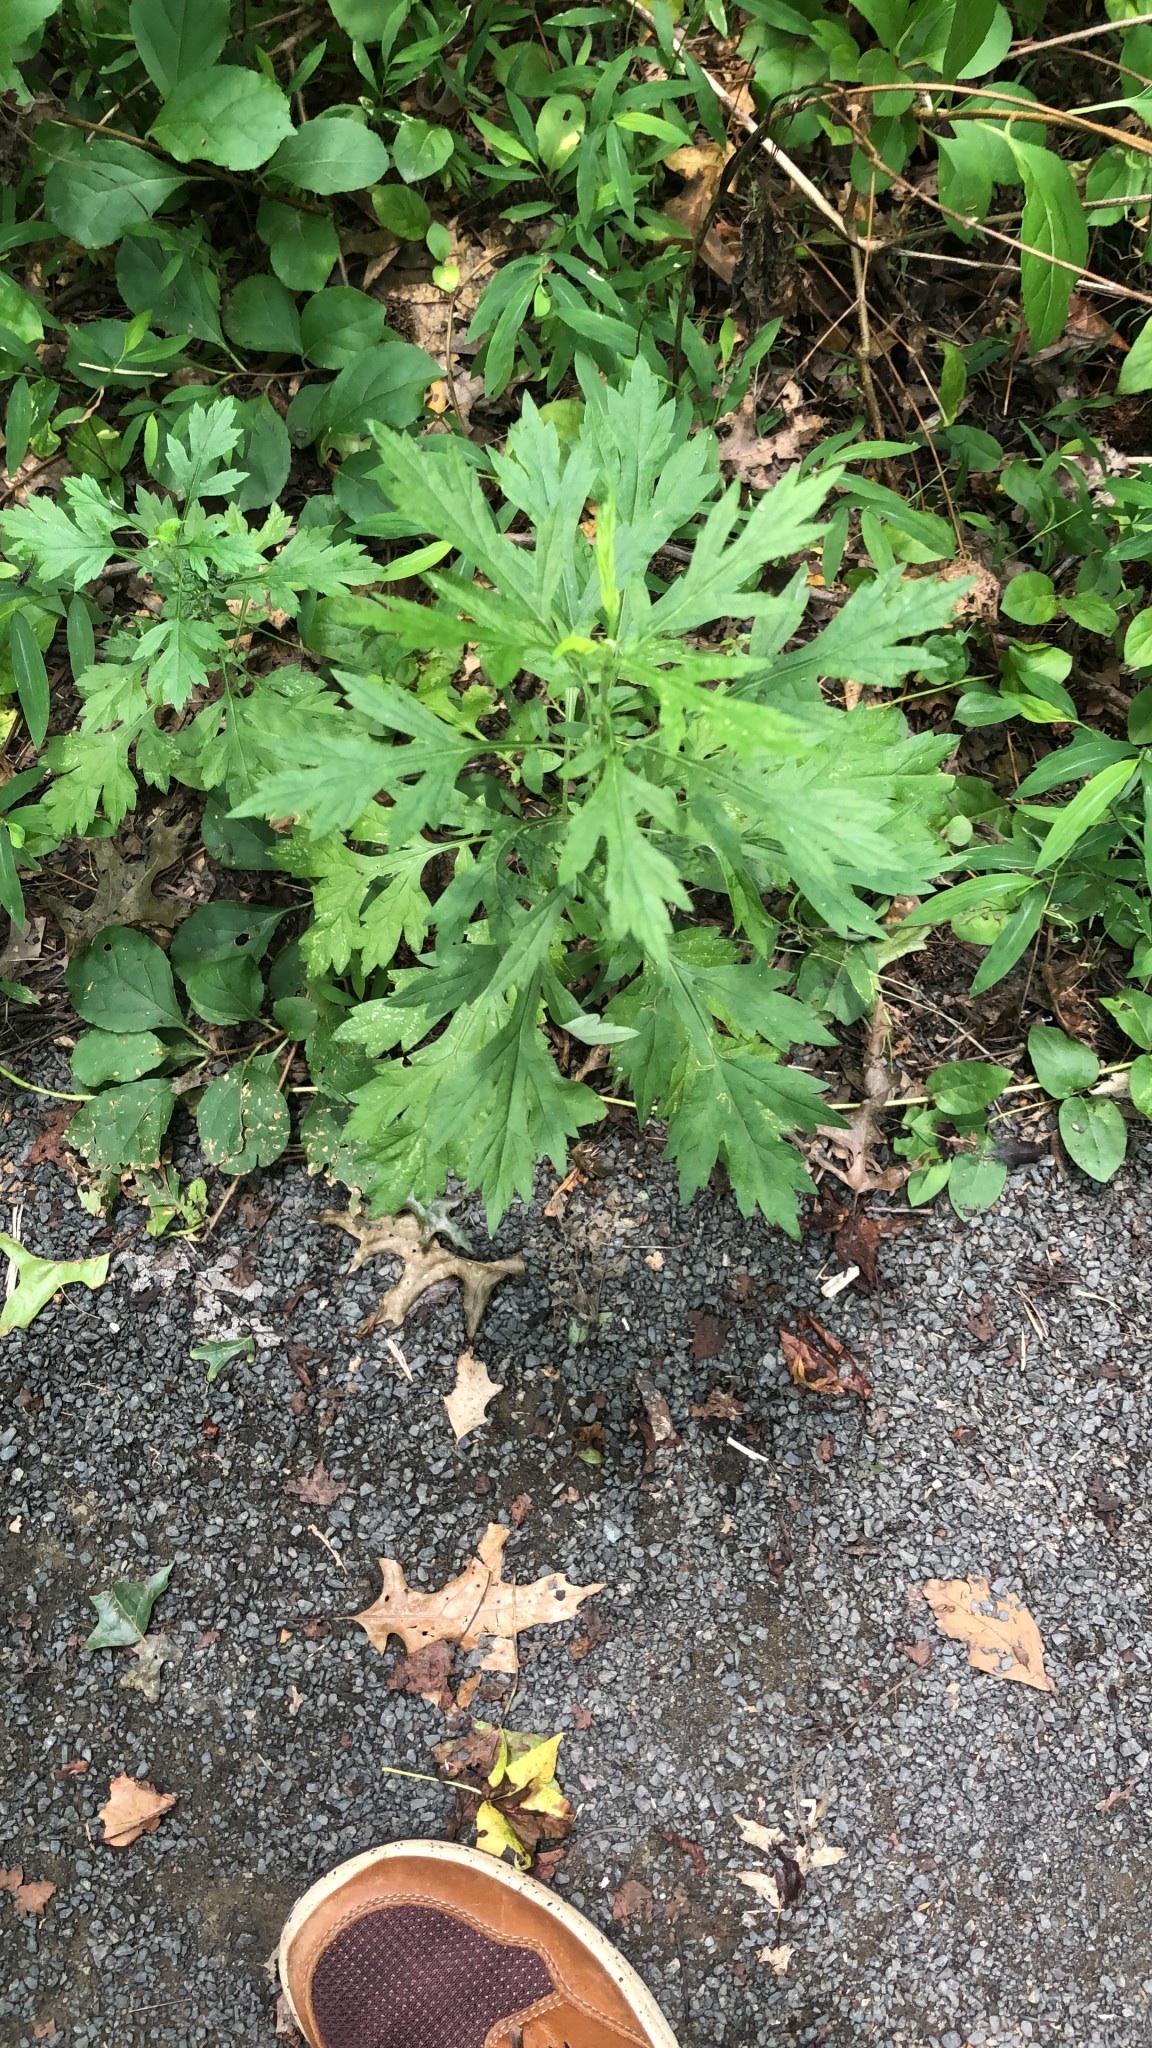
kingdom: Plantae
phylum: Tracheophyta
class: Magnoliopsida
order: Asterales
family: Asteraceae
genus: Artemisia
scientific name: Artemisia vulgaris
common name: Mugwort
